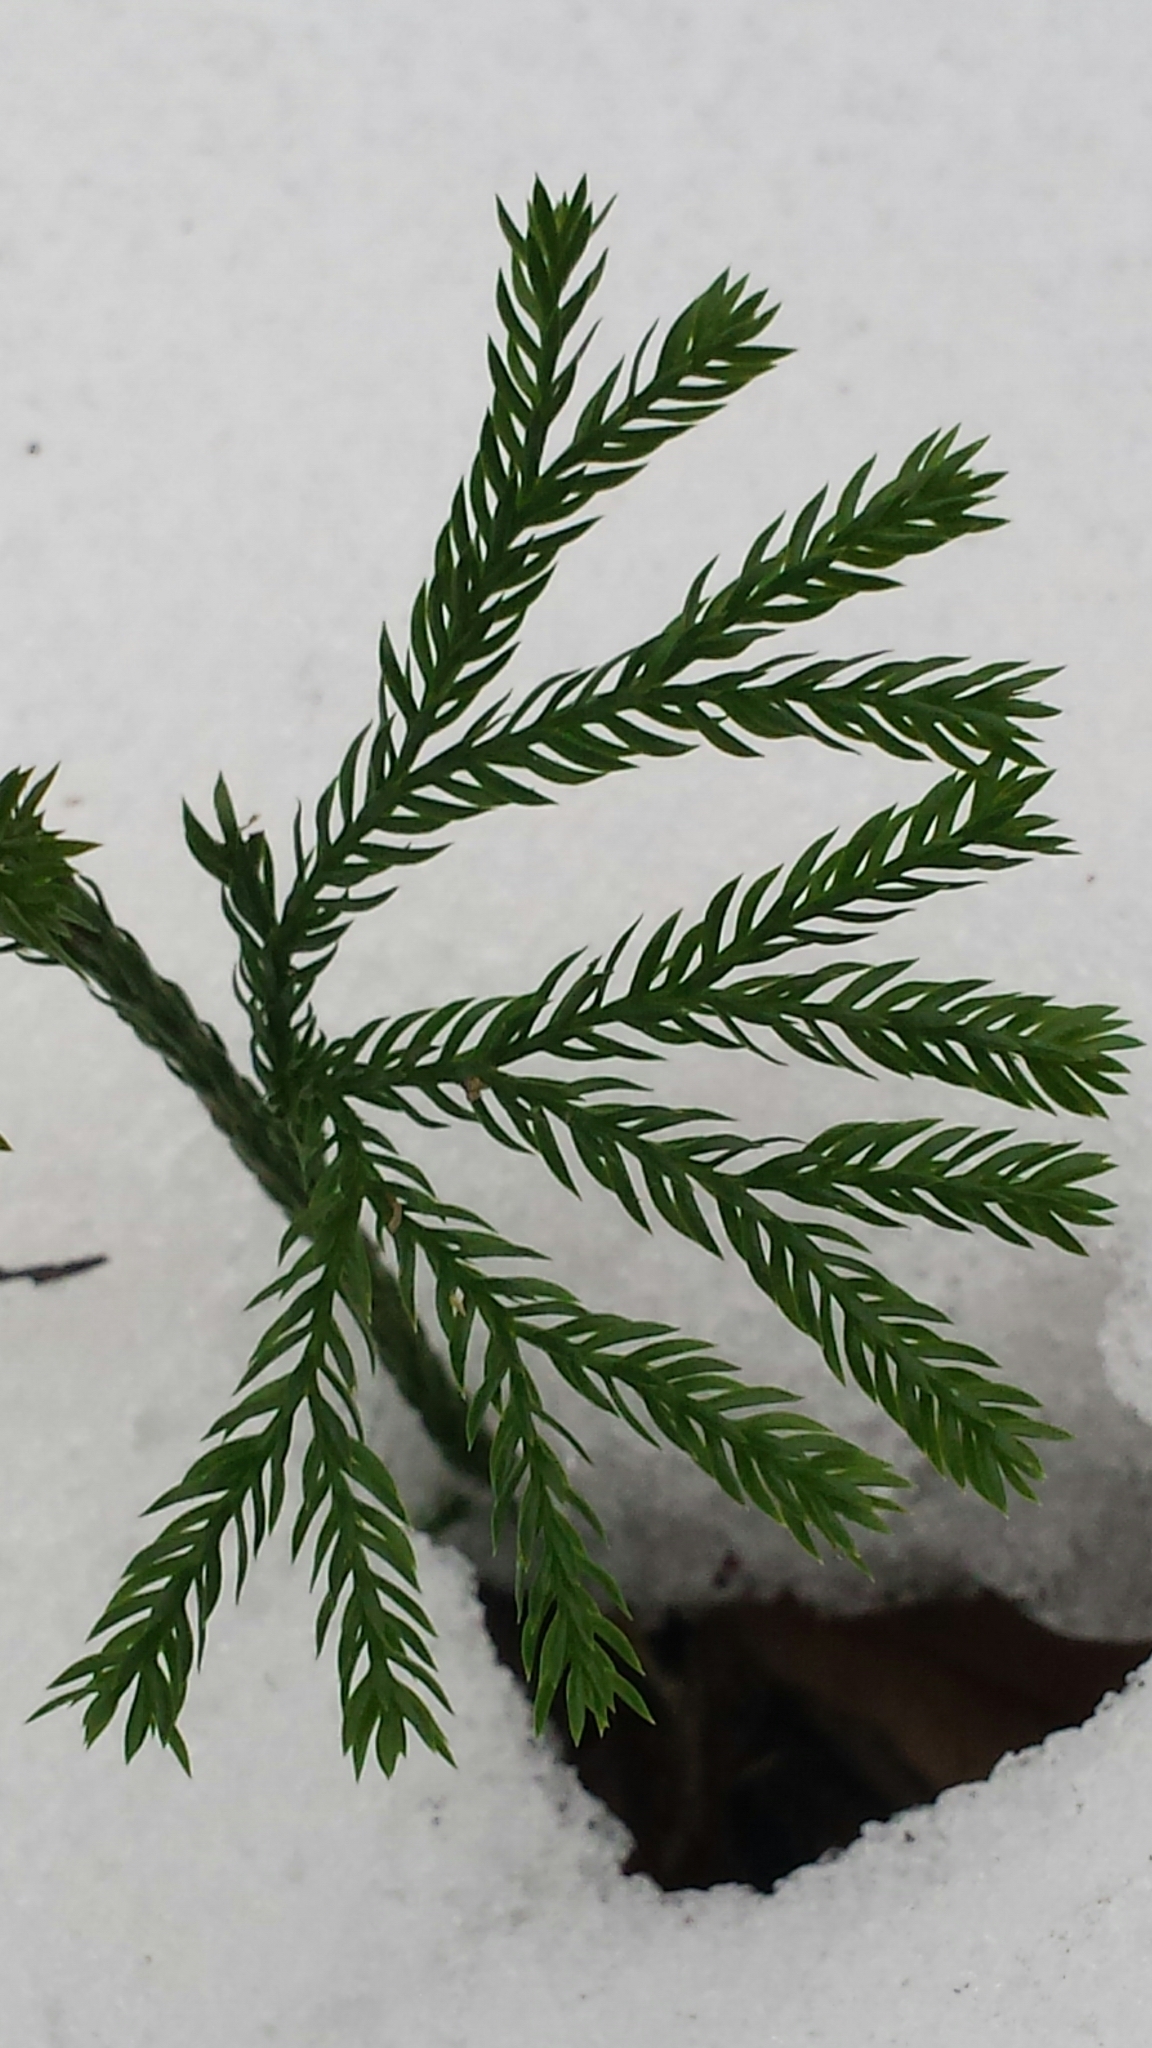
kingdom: Plantae
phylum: Tracheophyta
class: Lycopodiopsida
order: Lycopodiales
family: Lycopodiaceae
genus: Dendrolycopodium
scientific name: Dendrolycopodium obscurum
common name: Common ground-pine
